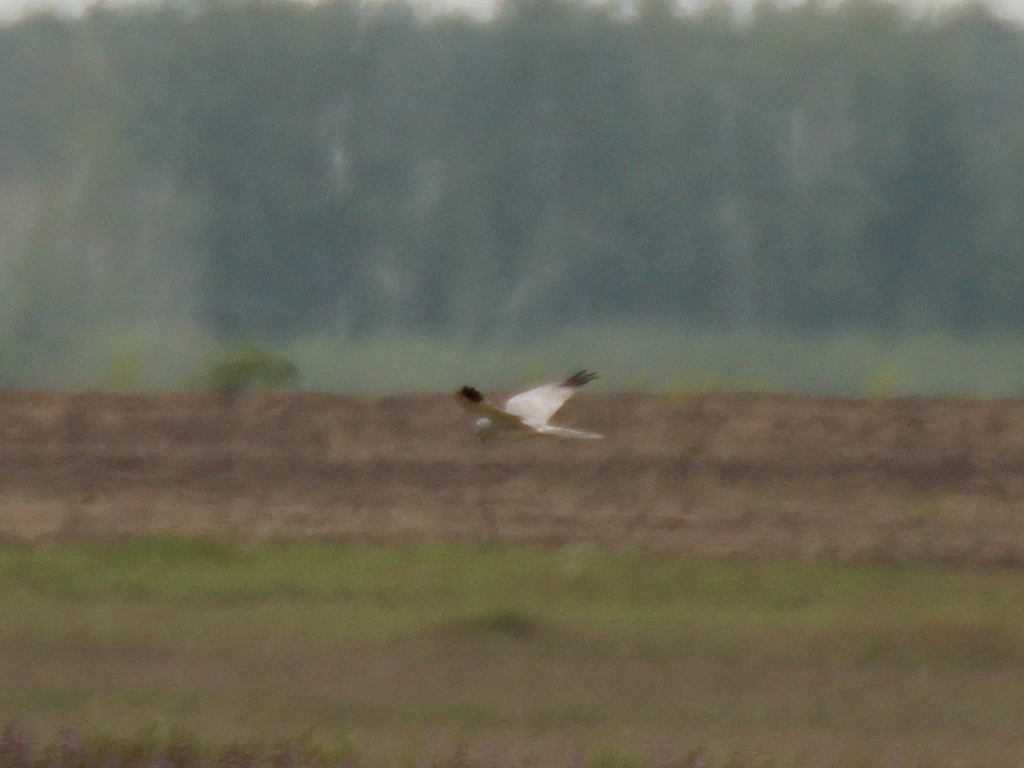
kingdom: Animalia
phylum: Chordata
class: Aves
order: Accipitriformes
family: Accipitridae
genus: Circus
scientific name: Circus macrourus
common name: Pallid harrier
